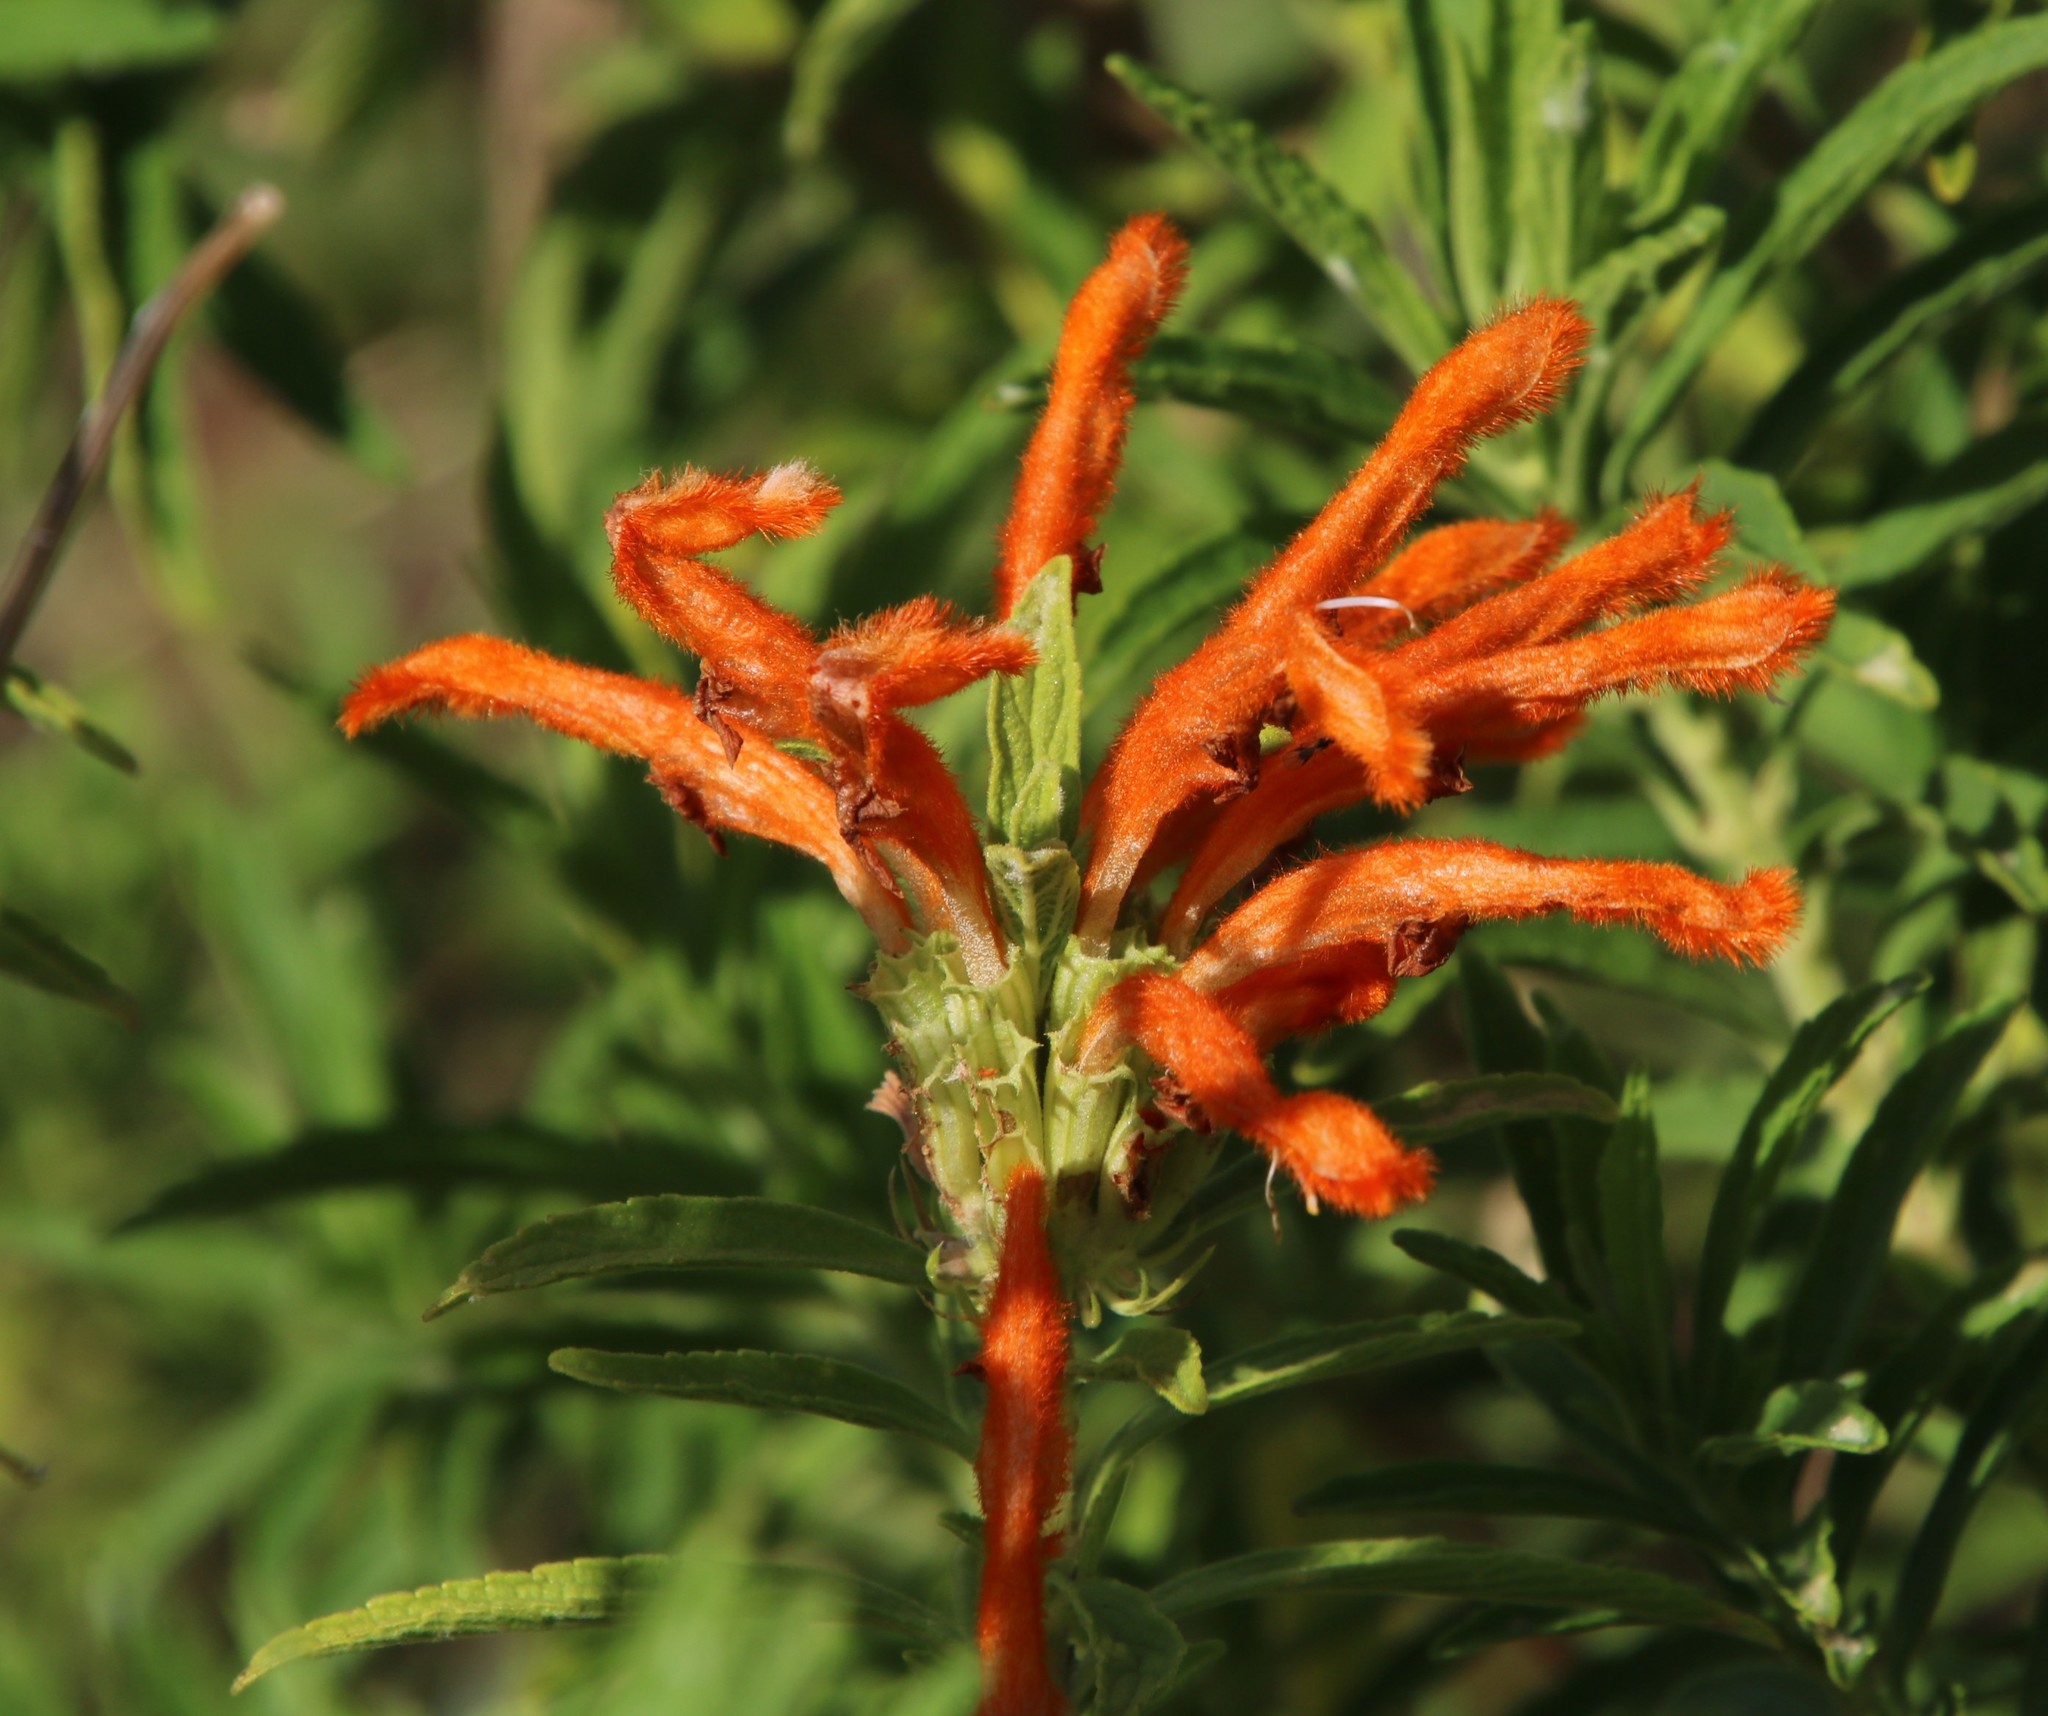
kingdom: Plantae
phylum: Tracheophyta
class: Magnoliopsida
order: Lamiales
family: Lamiaceae
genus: Leonotis
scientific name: Leonotis leonurus
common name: Lion's ear
